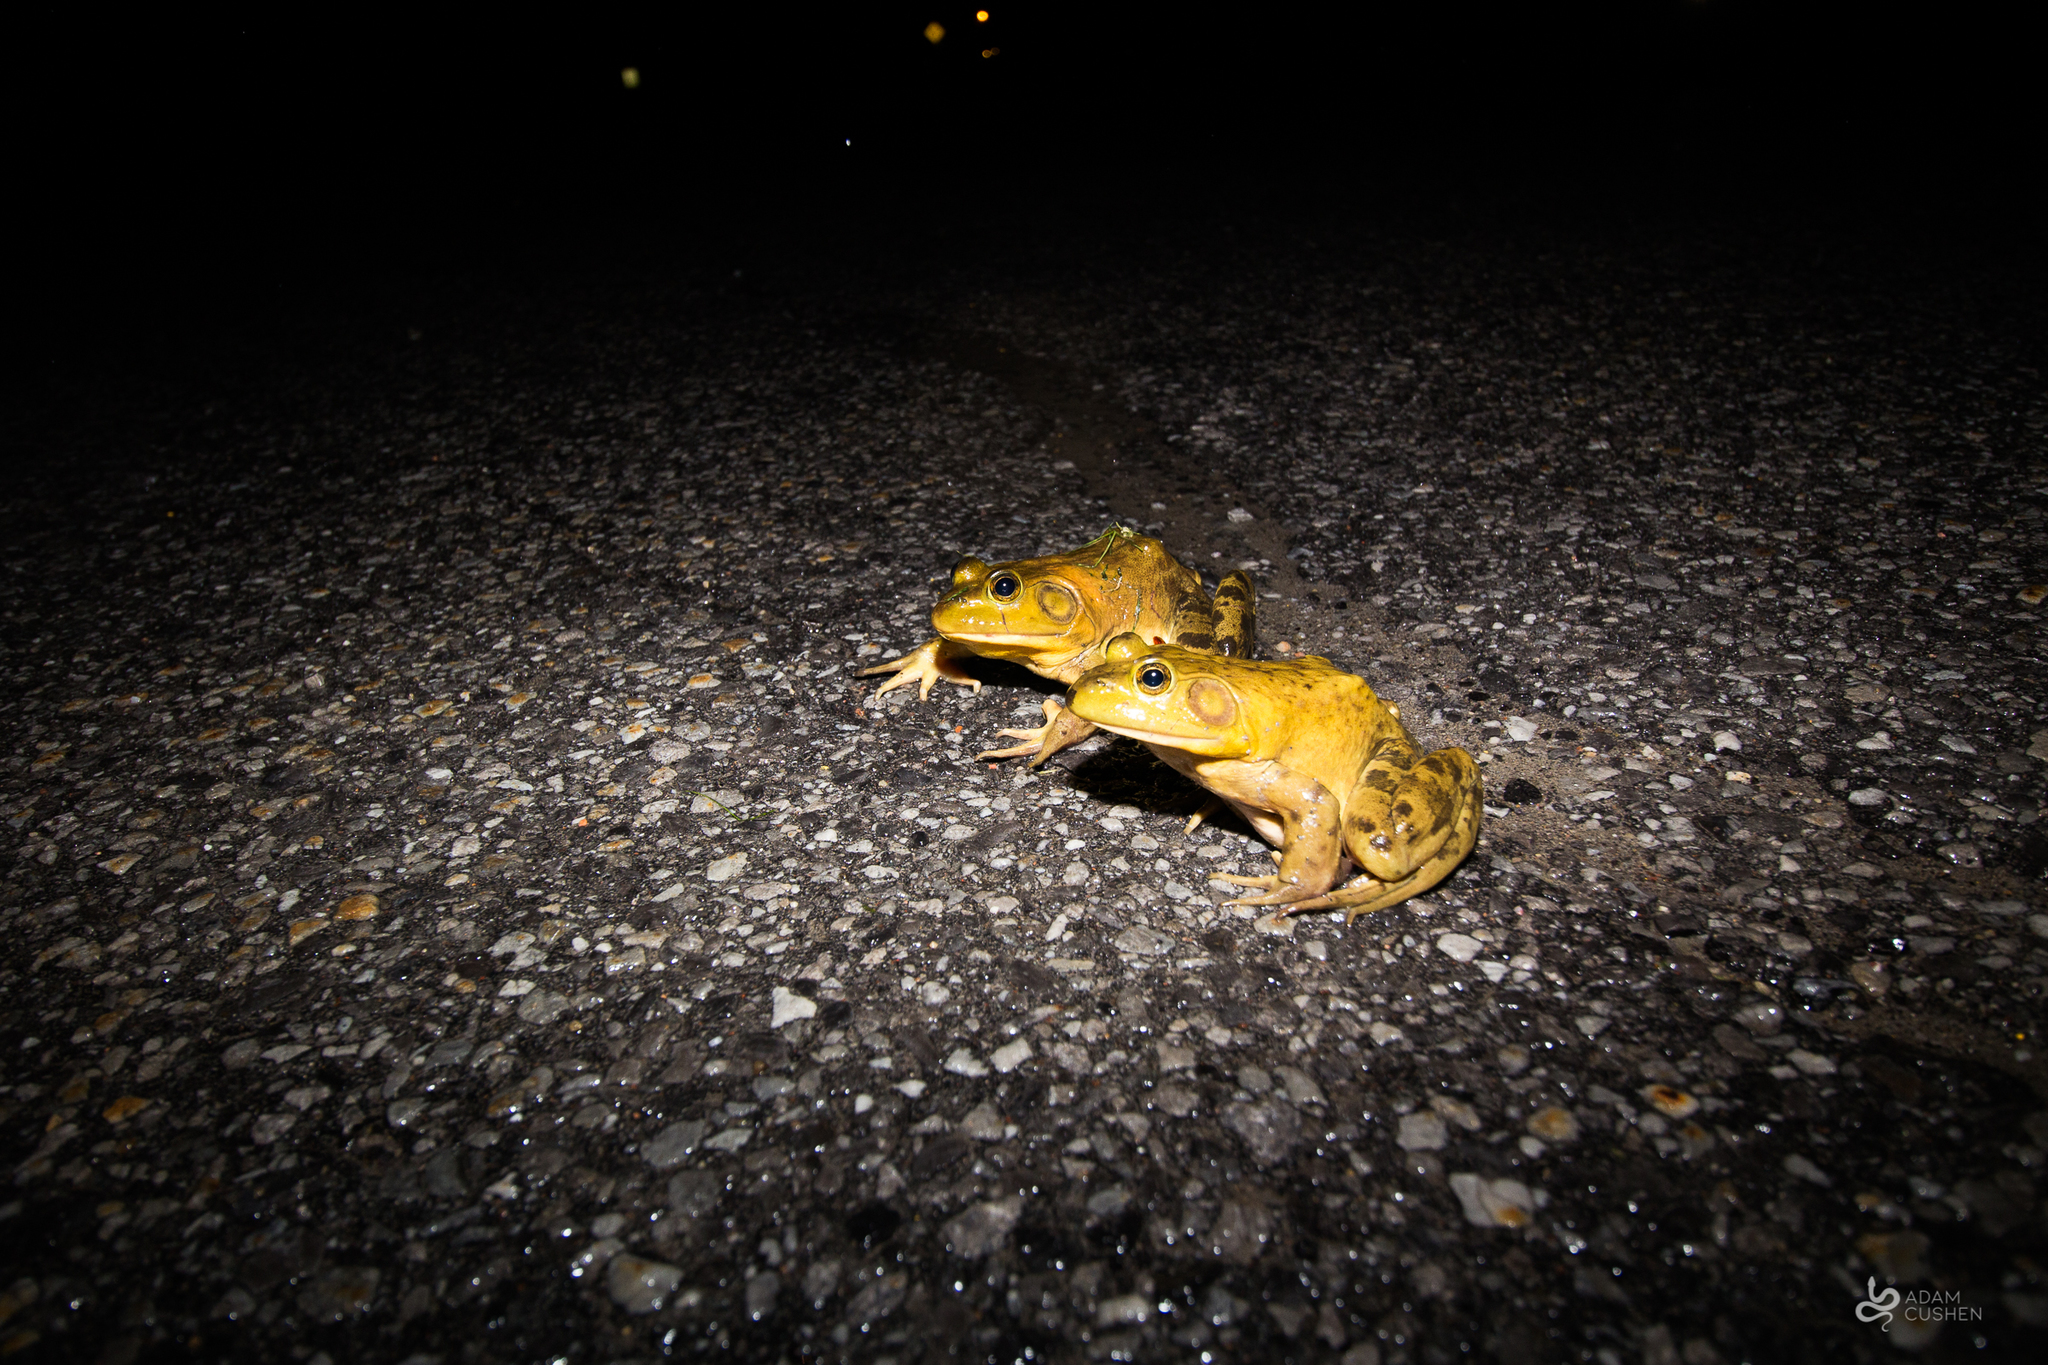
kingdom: Animalia
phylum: Chordata
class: Amphibia
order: Anura
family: Ranidae
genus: Lithobates
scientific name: Lithobates catesbeianus
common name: American bullfrog
